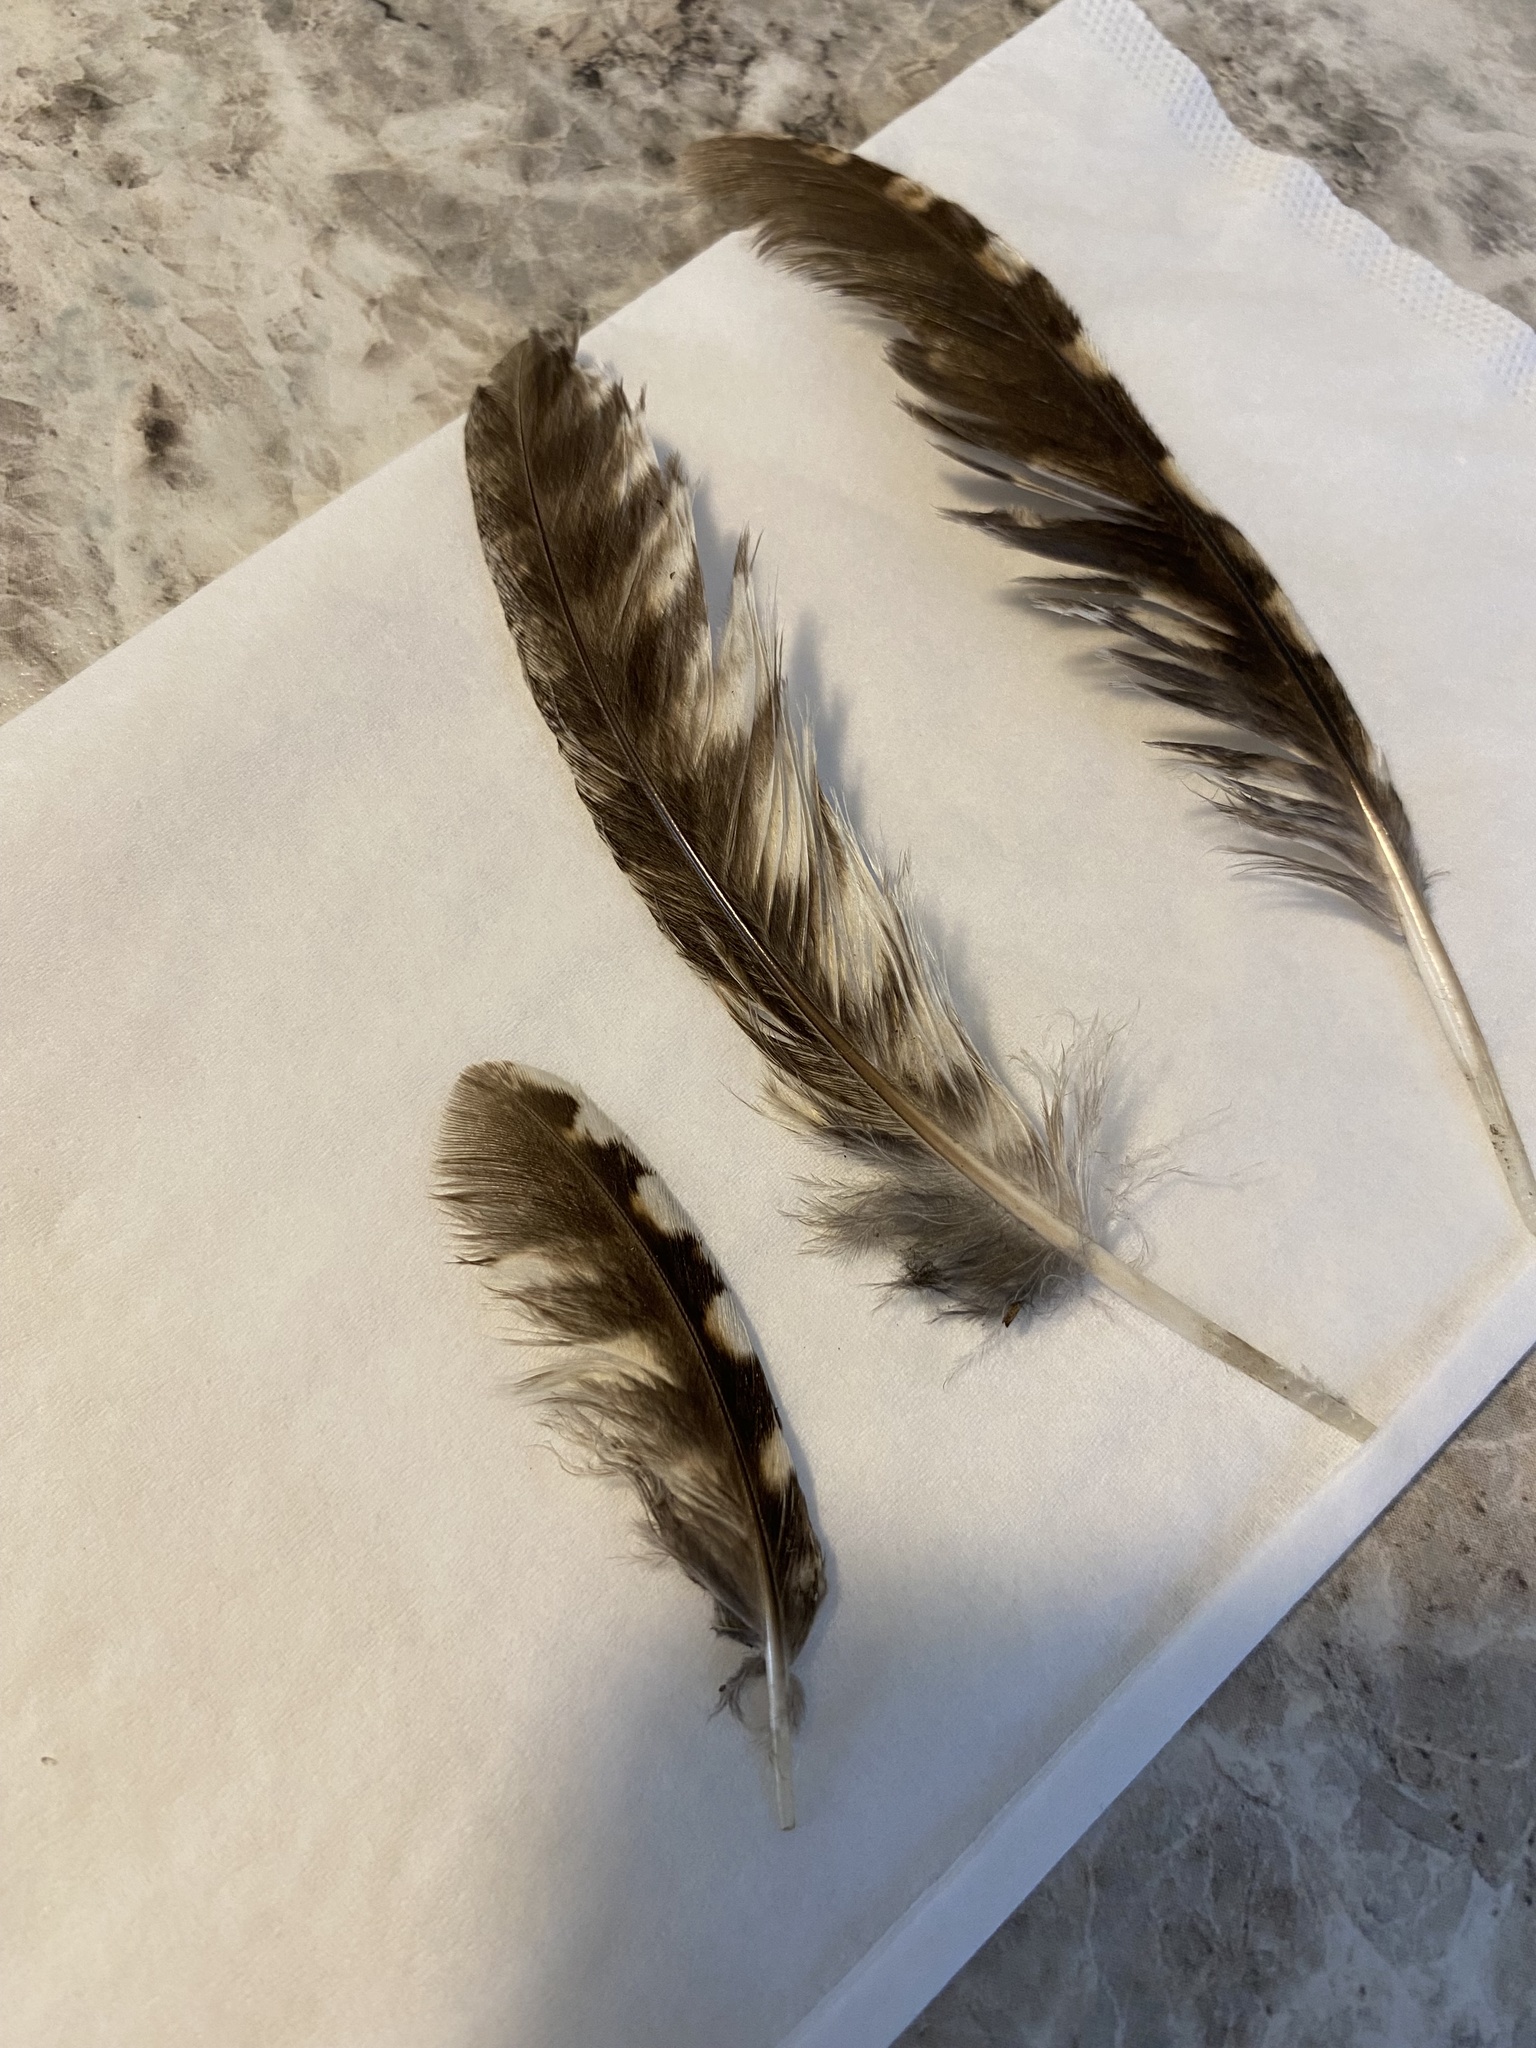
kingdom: Animalia
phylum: Chordata
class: Aves
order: Strigiformes
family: Strigidae
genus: Megascops
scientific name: Megascops asio
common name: Eastern screech-owl
